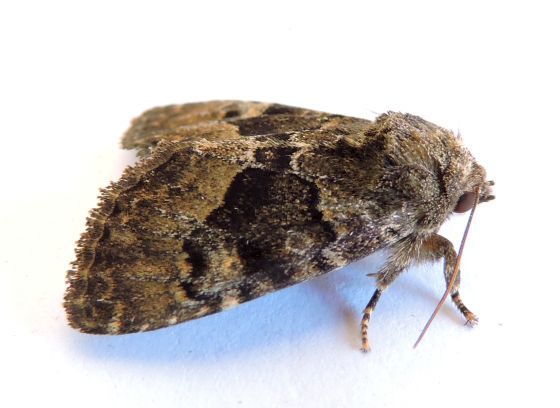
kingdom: Animalia
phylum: Arthropoda
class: Insecta
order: Lepidoptera
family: Noctuidae
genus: Euamiana
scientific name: Euamiana dissimilis
